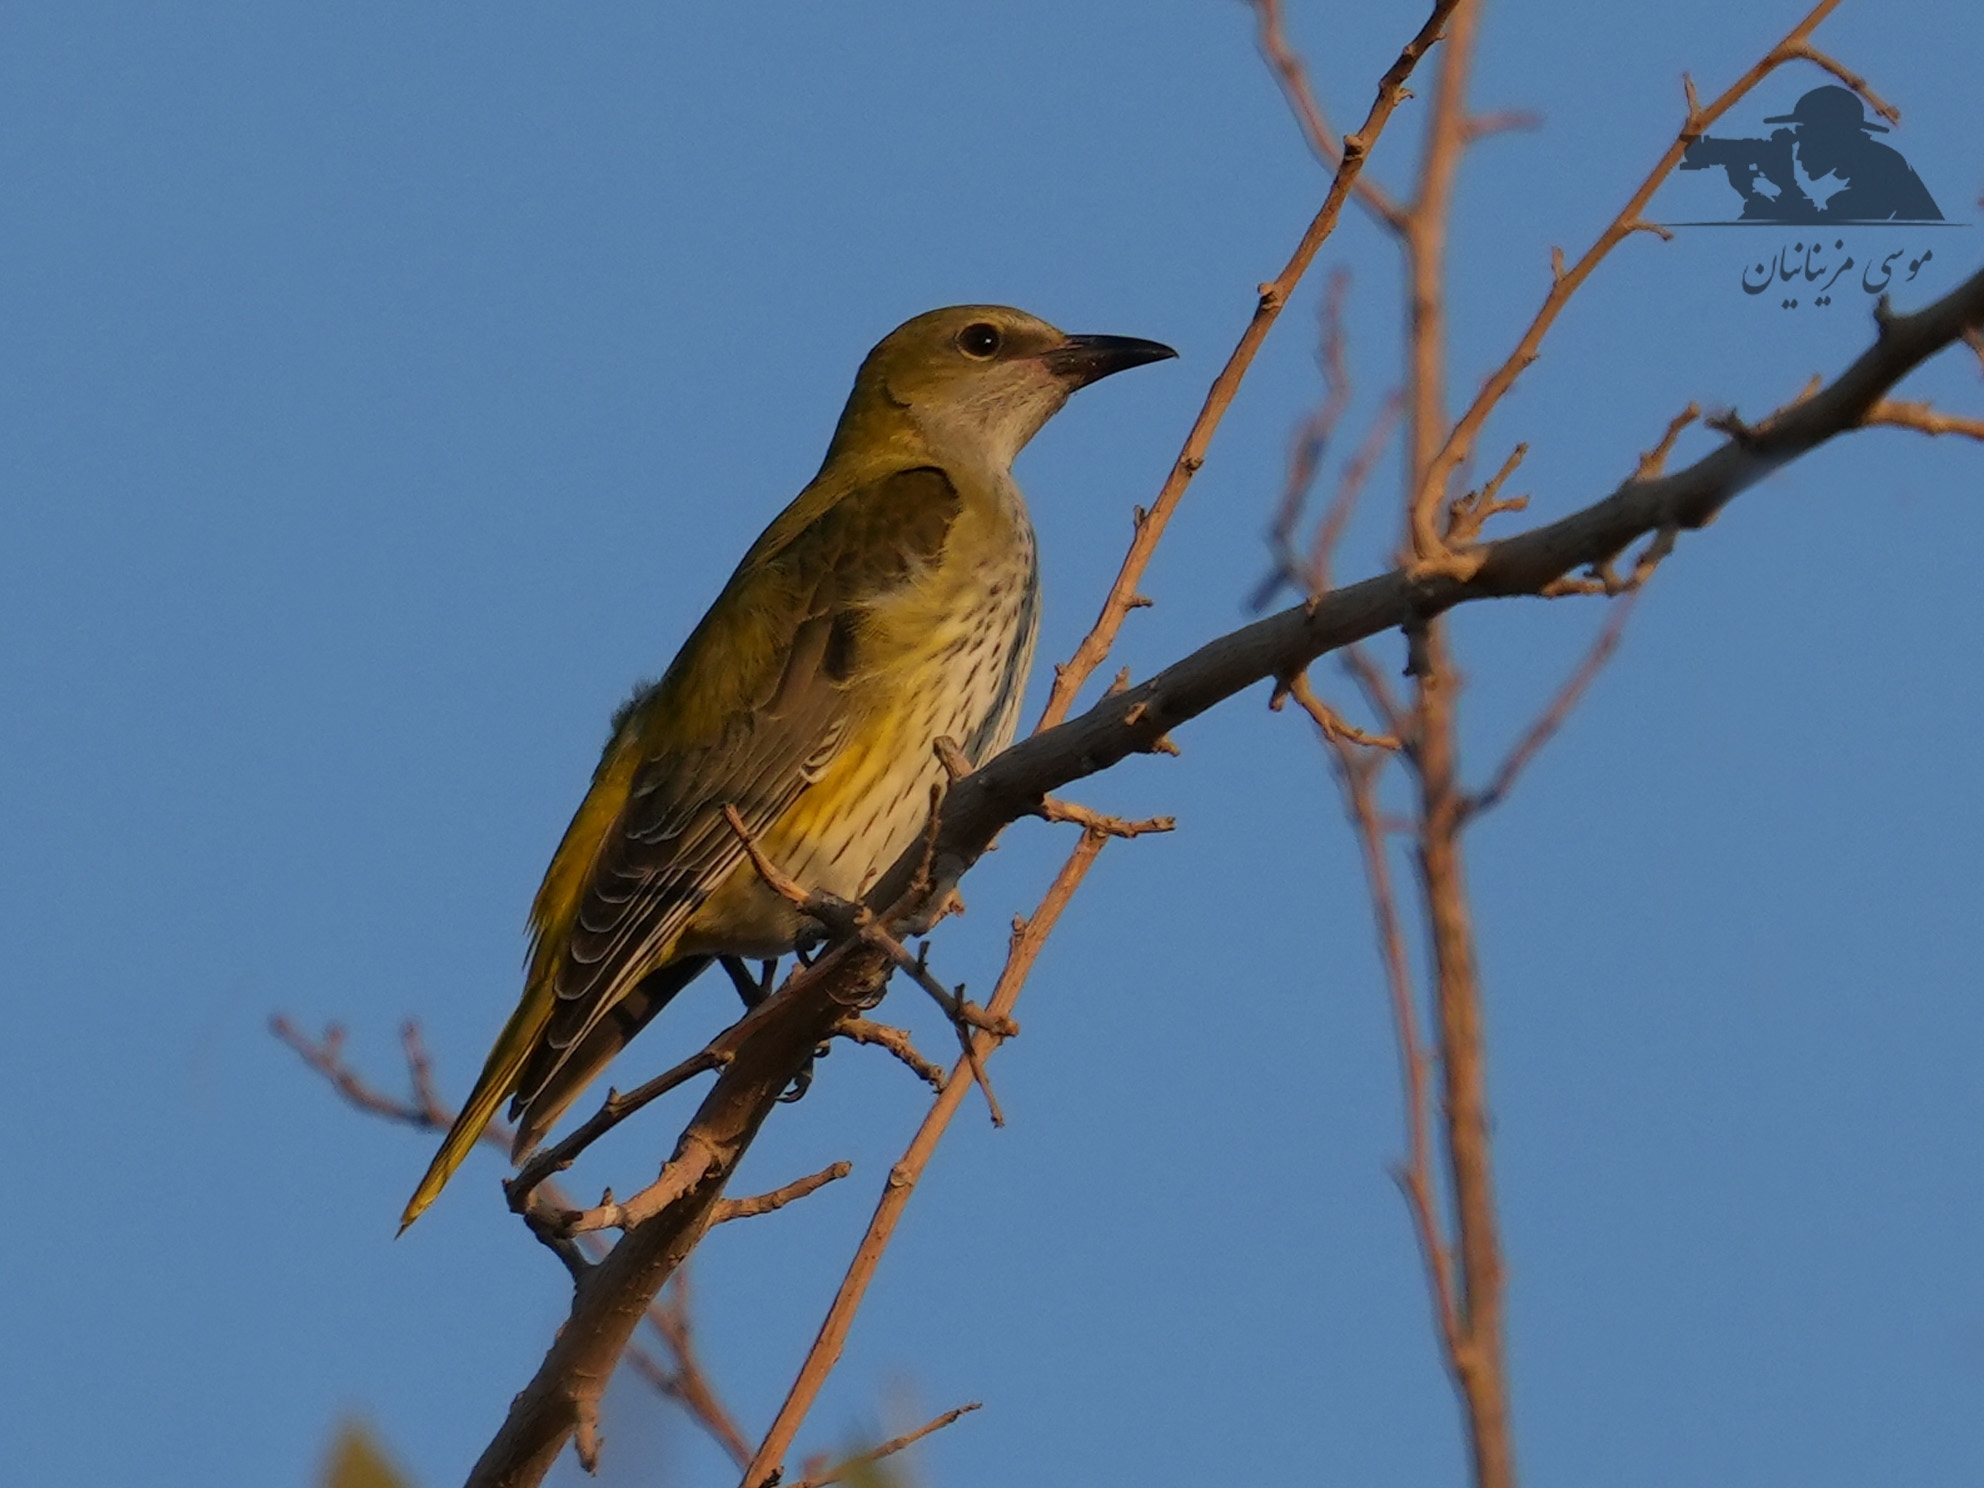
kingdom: Animalia
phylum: Chordata
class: Aves
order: Passeriformes
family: Oriolidae
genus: Oriolus
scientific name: Oriolus oriolus
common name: Eurasian golden oriole
